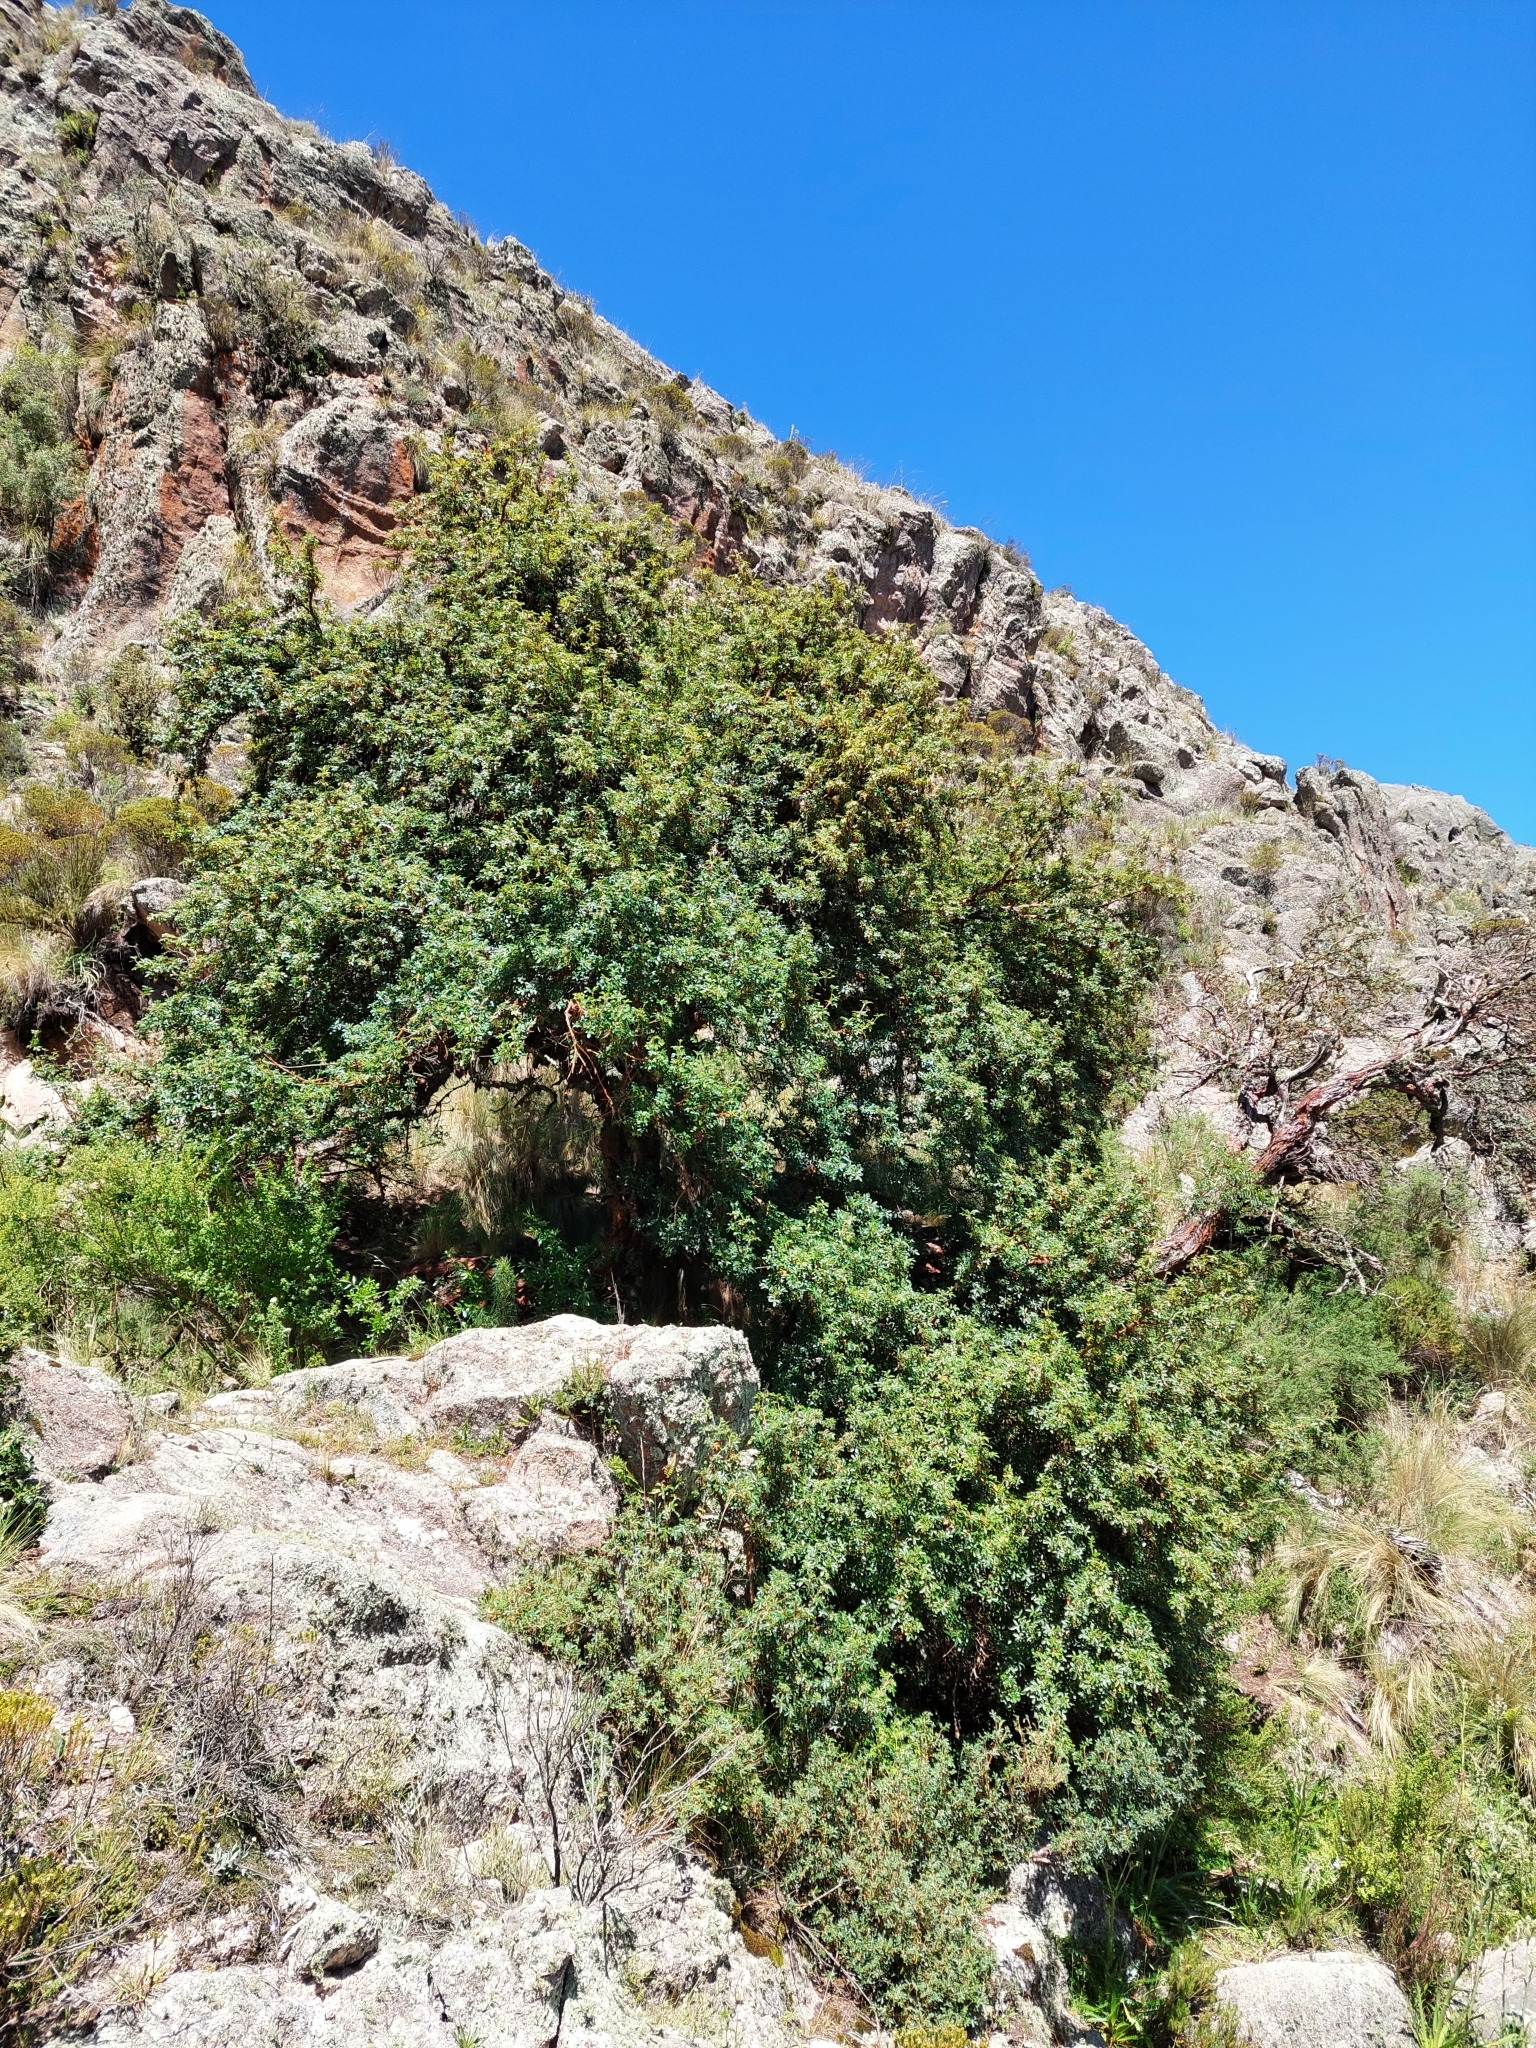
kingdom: Plantae
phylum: Tracheophyta
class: Magnoliopsida
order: Rosales
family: Rosaceae
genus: Polylepis
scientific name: Polylepis australis
